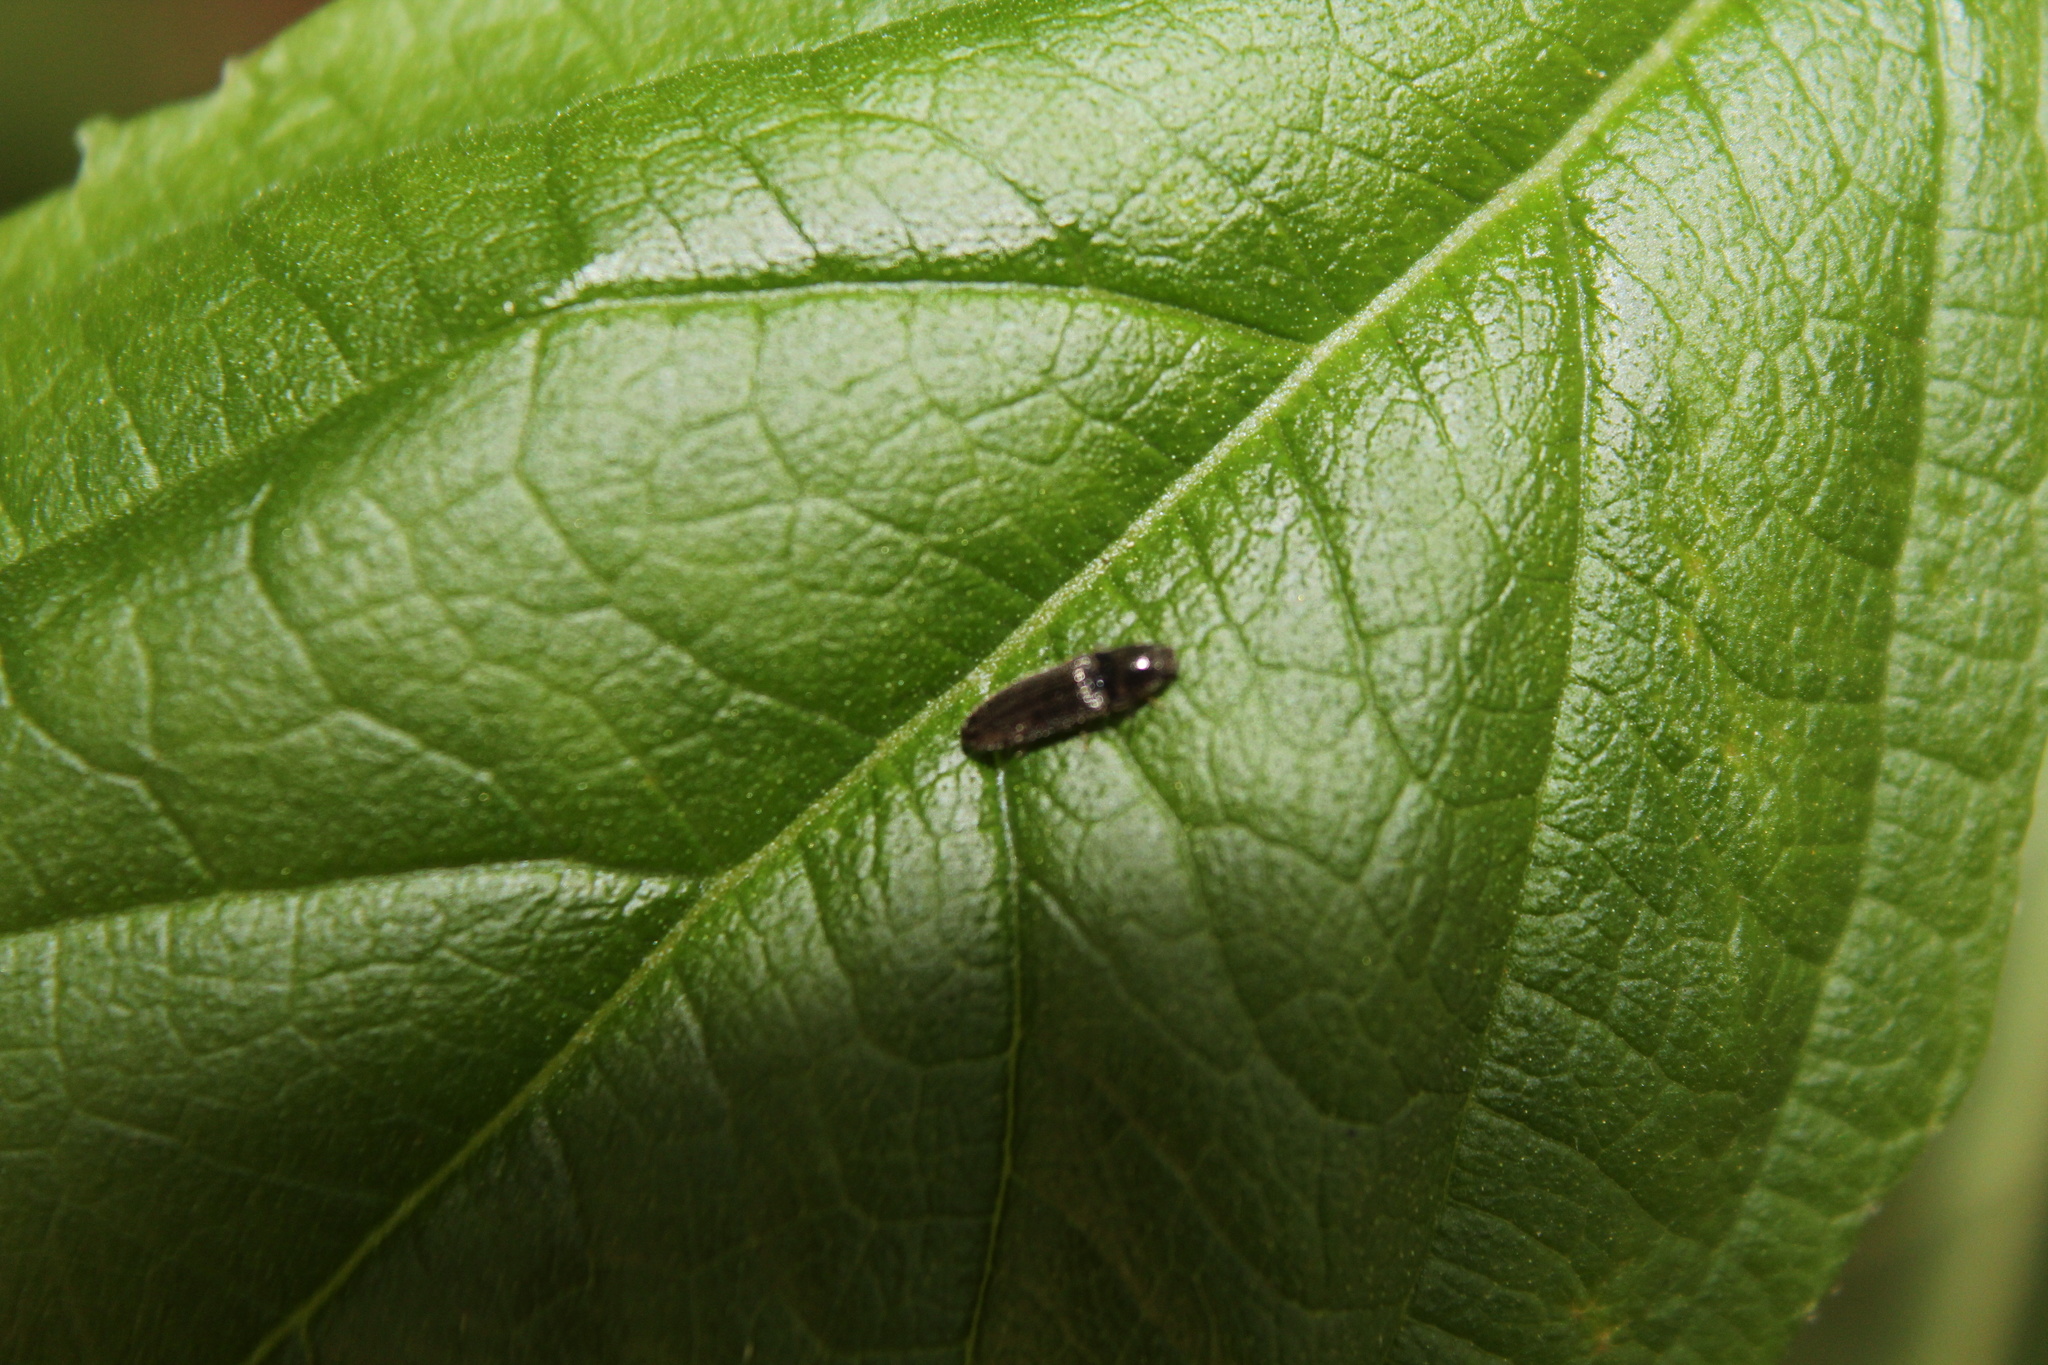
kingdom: Animalia
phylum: Arthropoda
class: Insecta
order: Coleoptera
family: Elateridae
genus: Limonius
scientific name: Limonius quercinus
